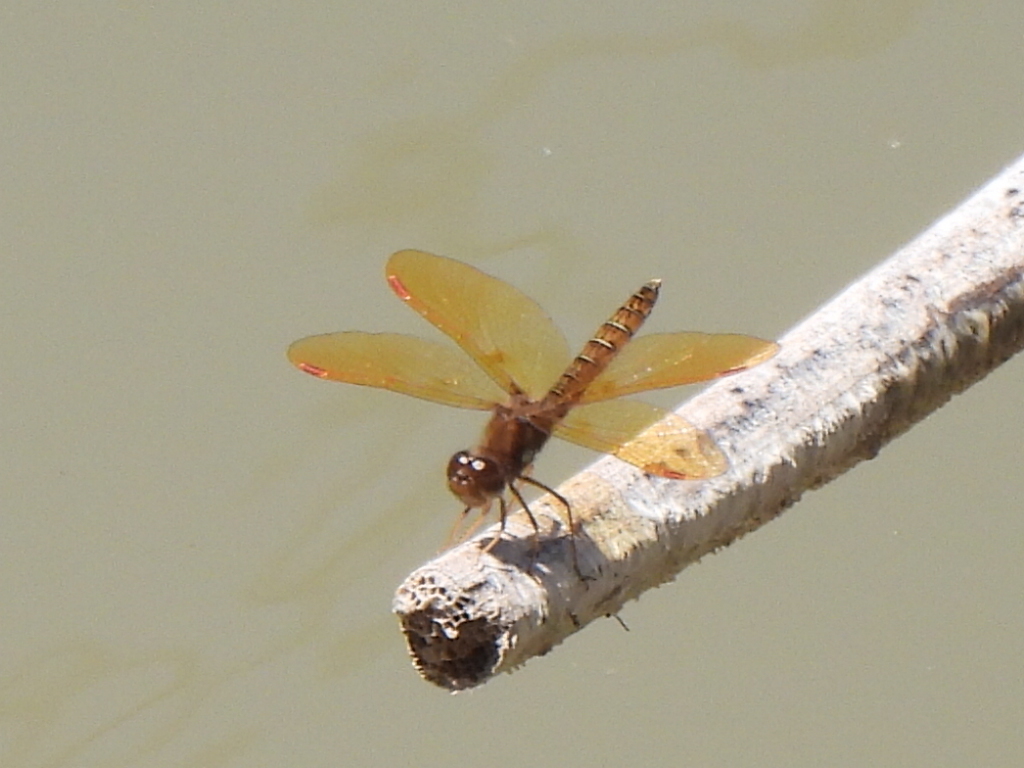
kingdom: Animalia
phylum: Arthropoda
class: Insecta
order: Odonata
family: Libellulidae
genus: Perithemis
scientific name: Perithemis tenera
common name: Eastern amberwing
